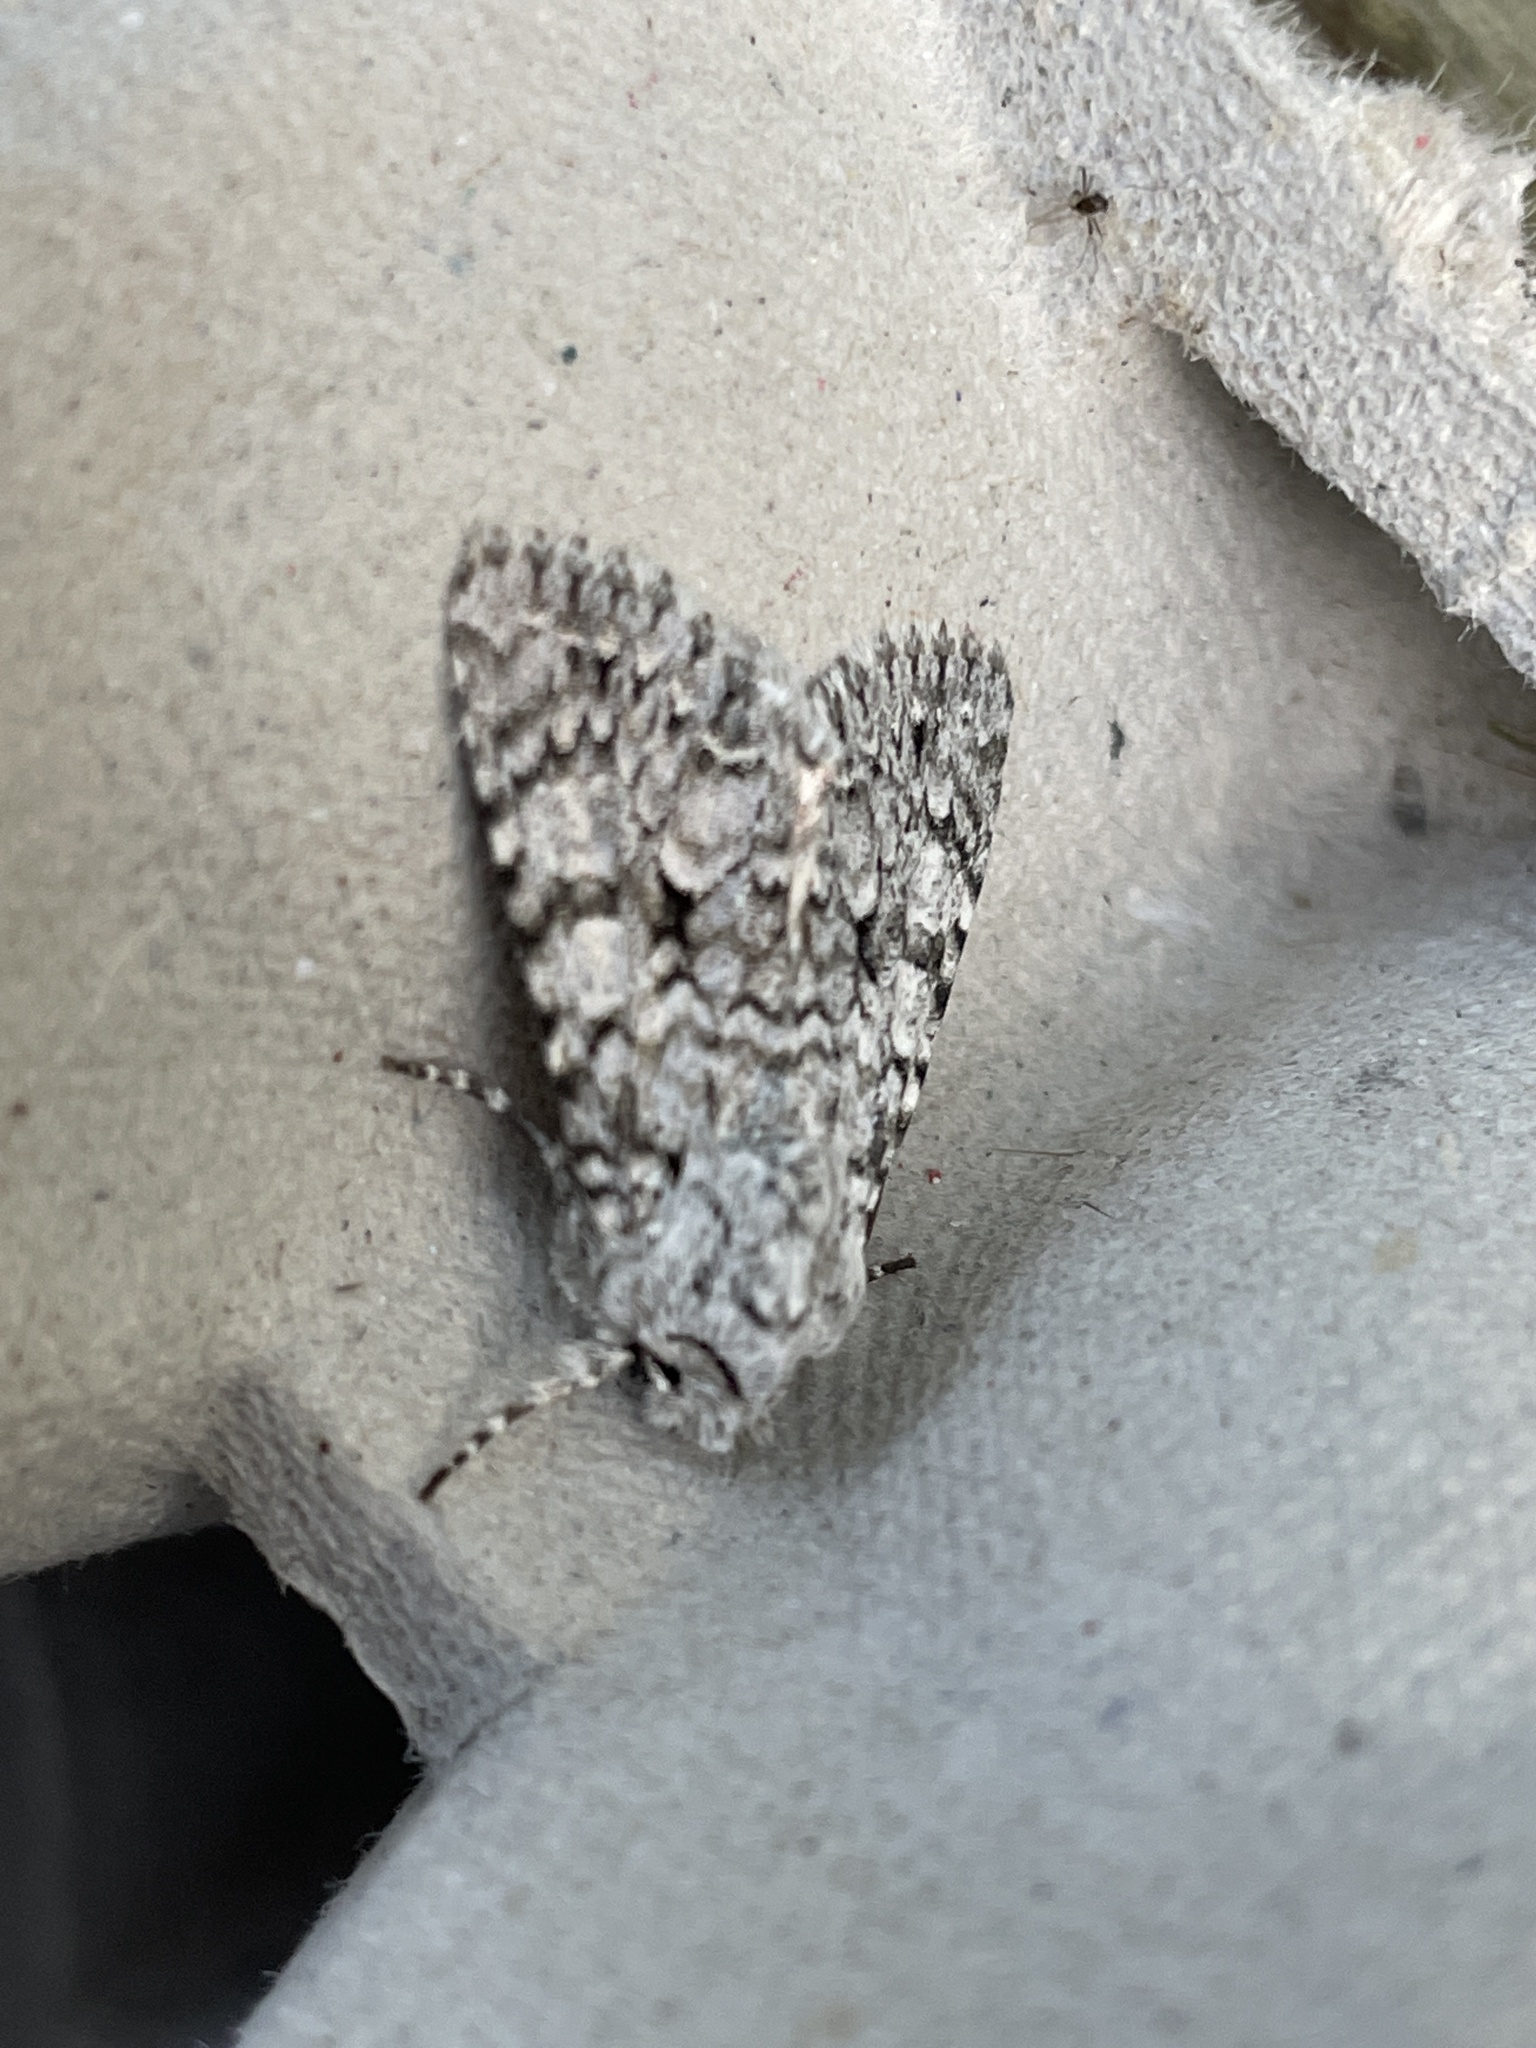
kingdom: Animalia
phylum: Arthropoda
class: Insecta
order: Lepidoptera
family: Noctuidae
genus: Antitype
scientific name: Antitype chi
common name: Grey chi
